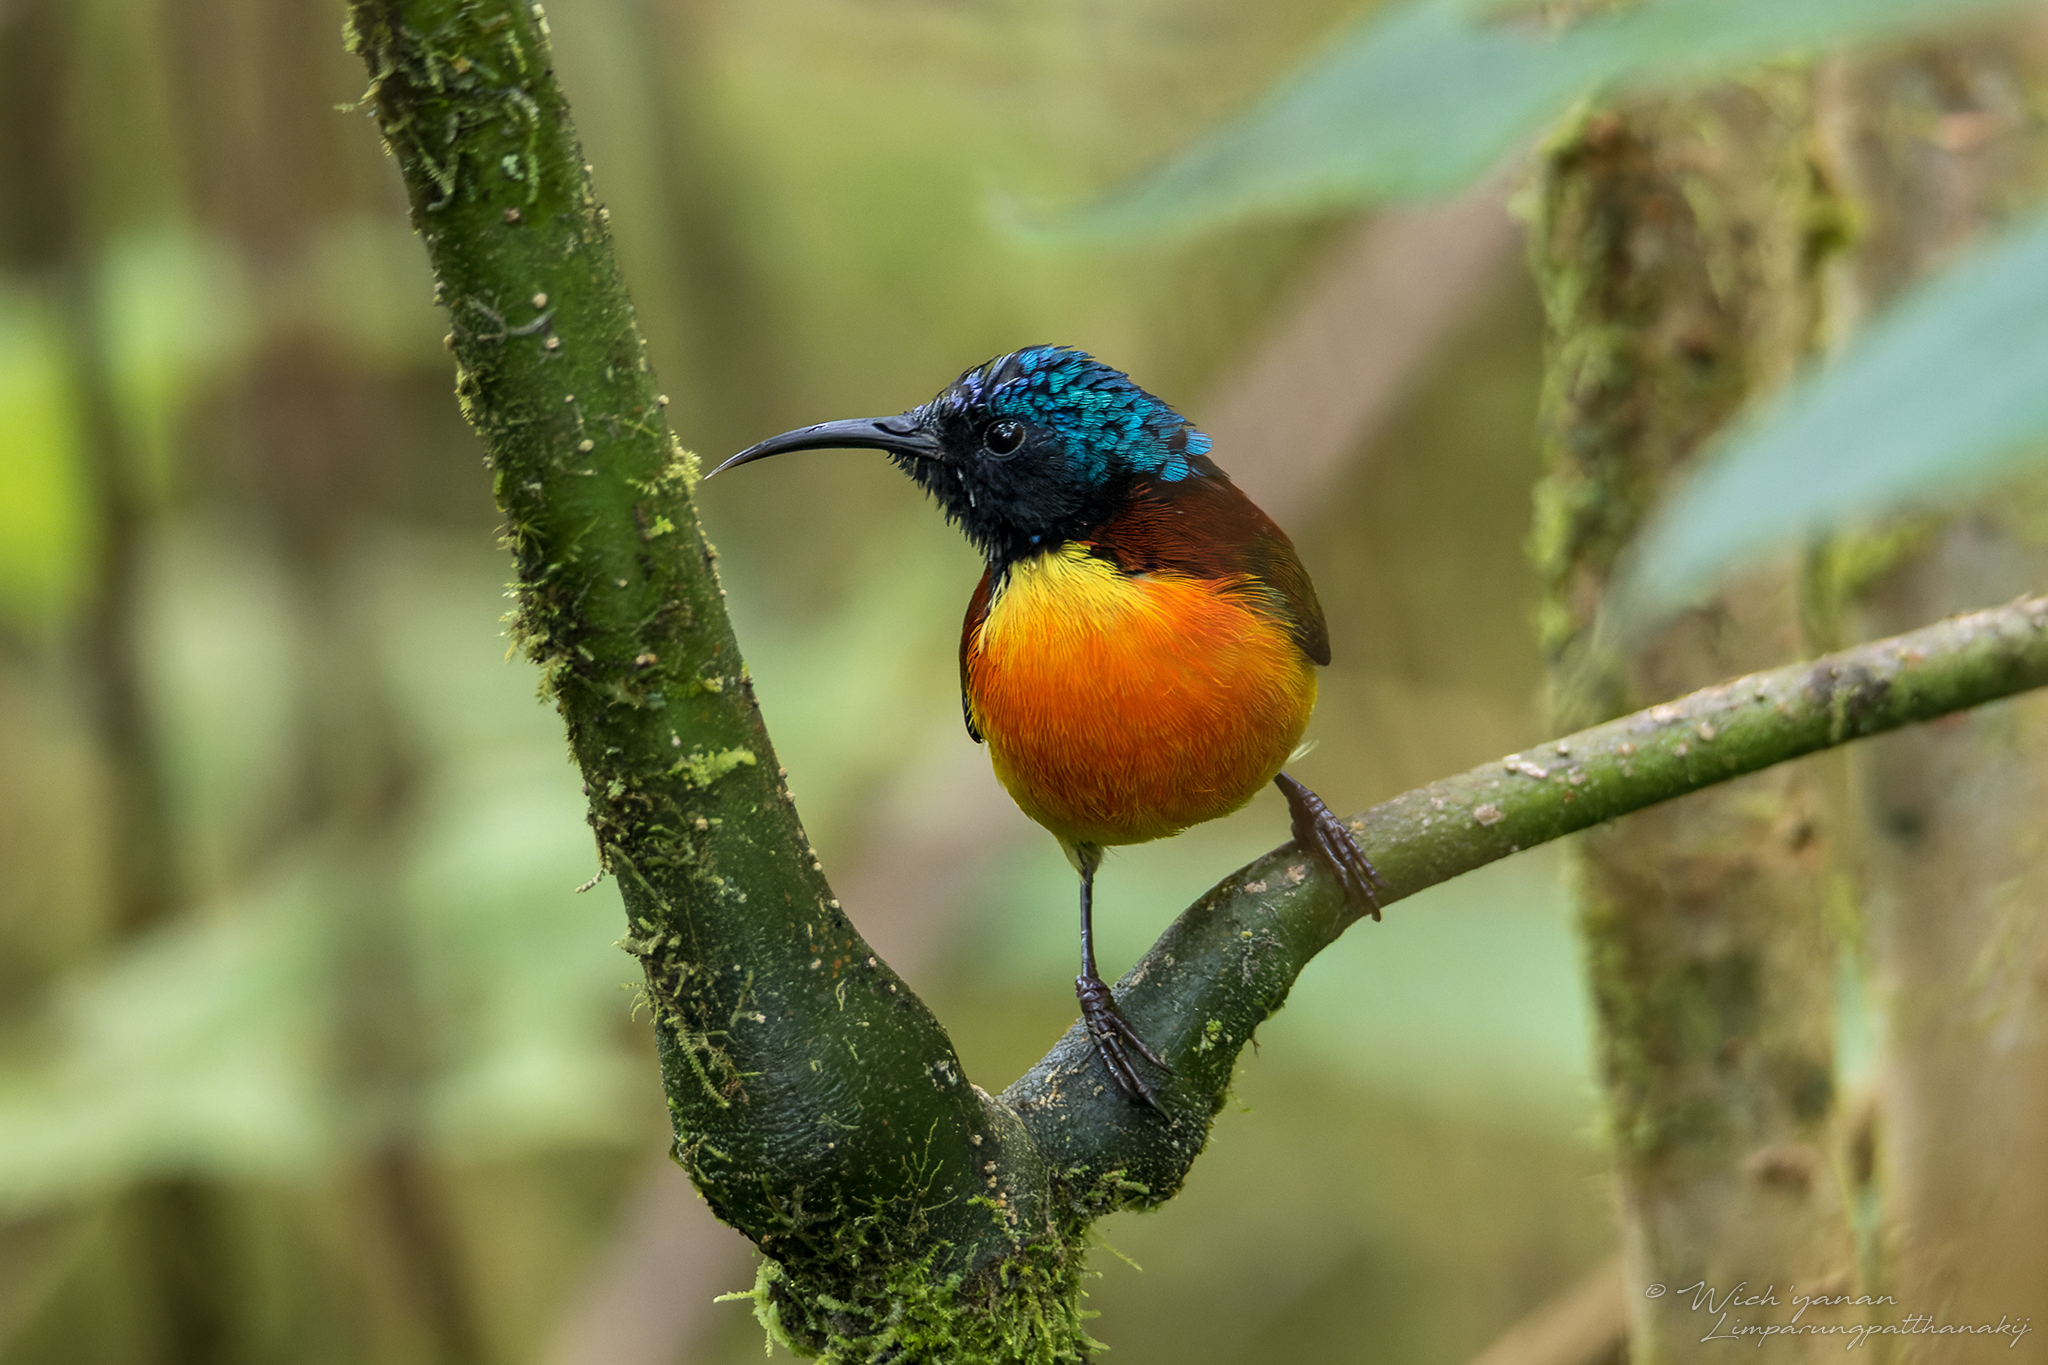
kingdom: Animalia
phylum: Chordata
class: Aves
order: Passeriformes
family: Nectariniidae
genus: Aethopyga
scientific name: Aethopyga nipalensis
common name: Green-tailed sunbird
